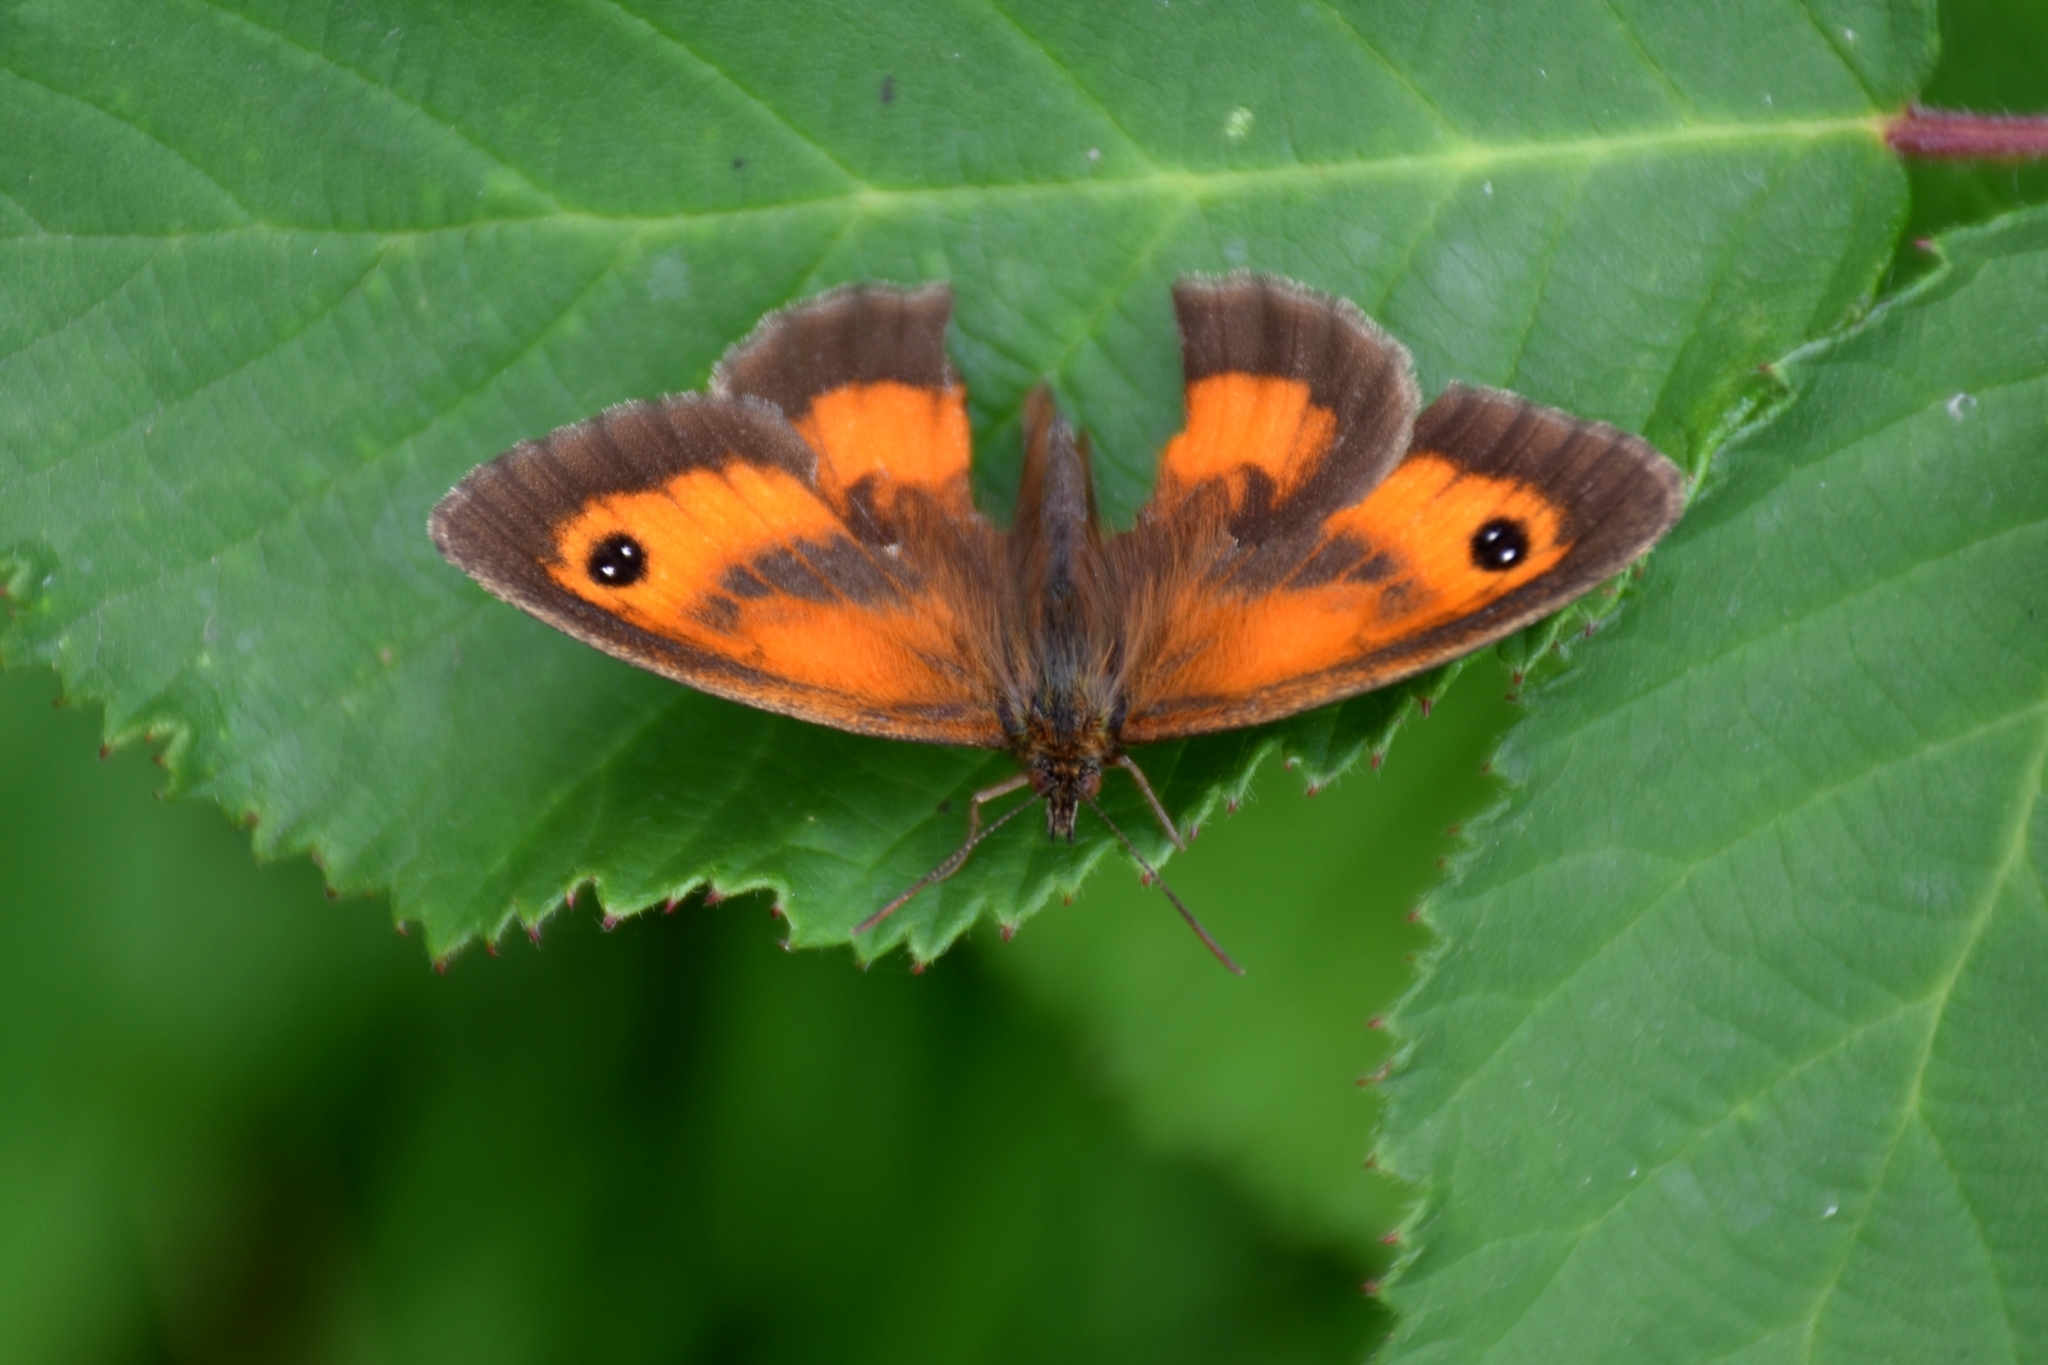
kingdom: Animalia
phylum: Arthropoda
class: Insecta
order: Lepidoptera
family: Nymphalidae
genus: Pyronia
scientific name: Pyronia tithonus
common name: Gatekeeper
